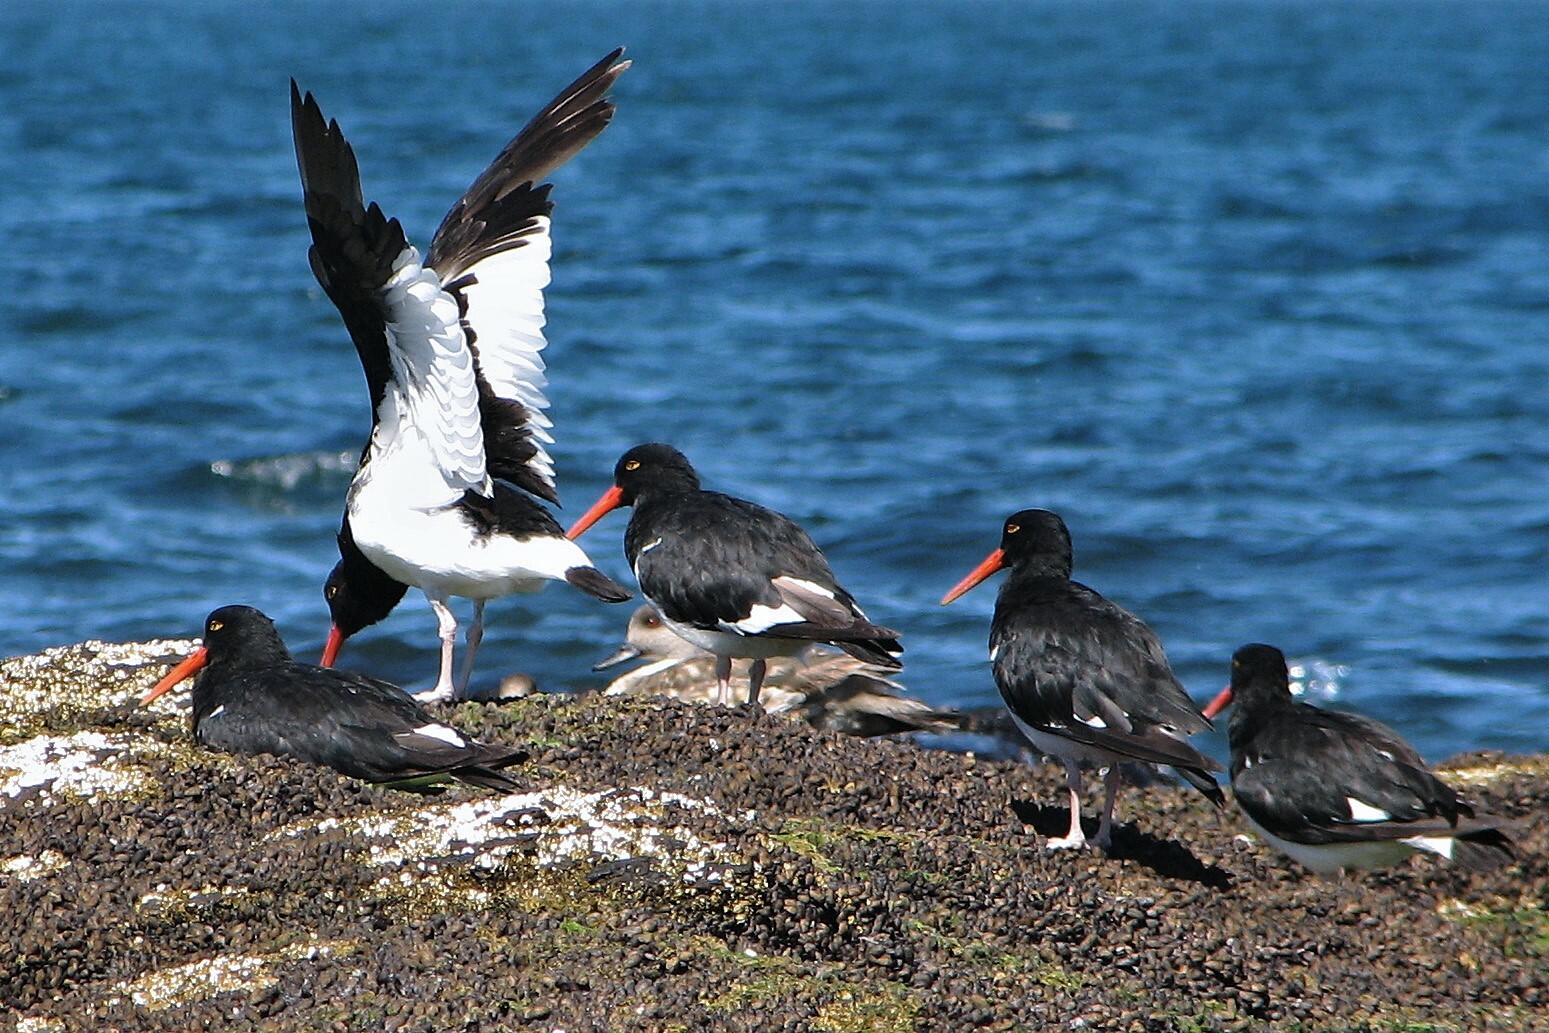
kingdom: Animalia
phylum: Chordata
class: Aves
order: Charadriiformes
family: Haematopodidae
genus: Haematopus
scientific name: Haematopus leucopodus
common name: Magellanic oystercatcher
